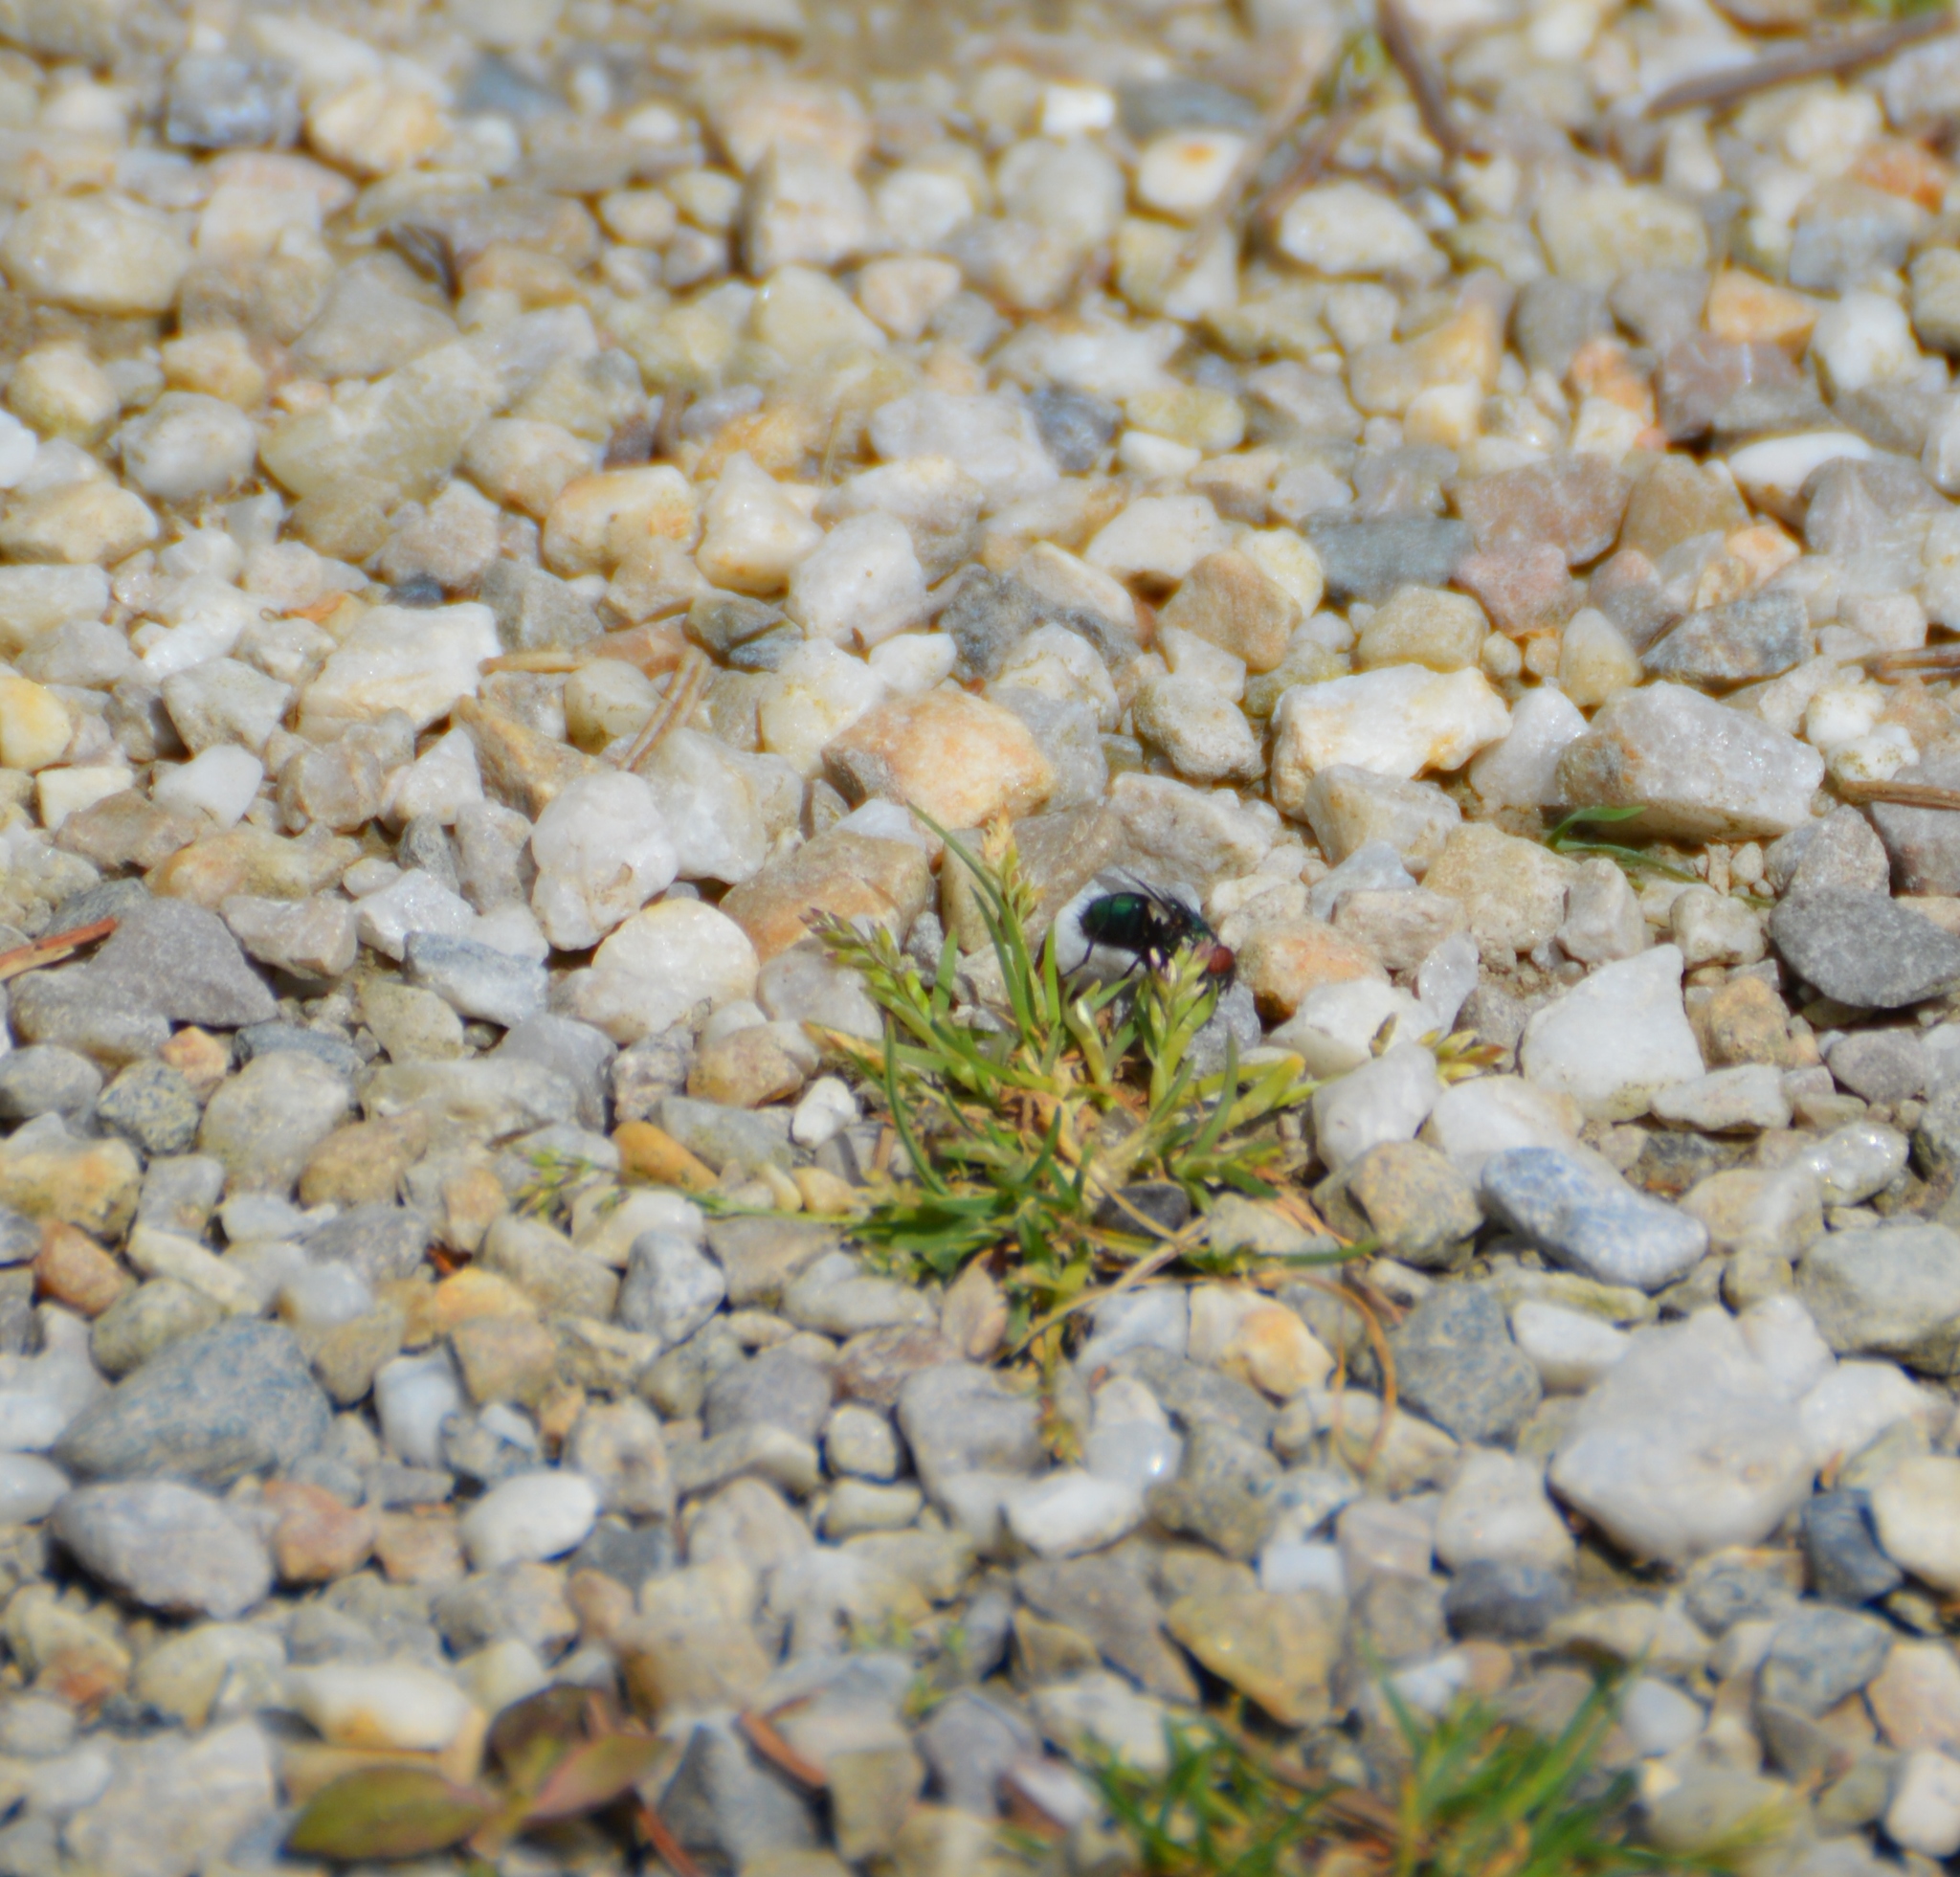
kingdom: Animalia
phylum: Arthropoda
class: Insecta
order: Diptera
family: Calliphoridae
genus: Lucilia
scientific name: Lucilia
